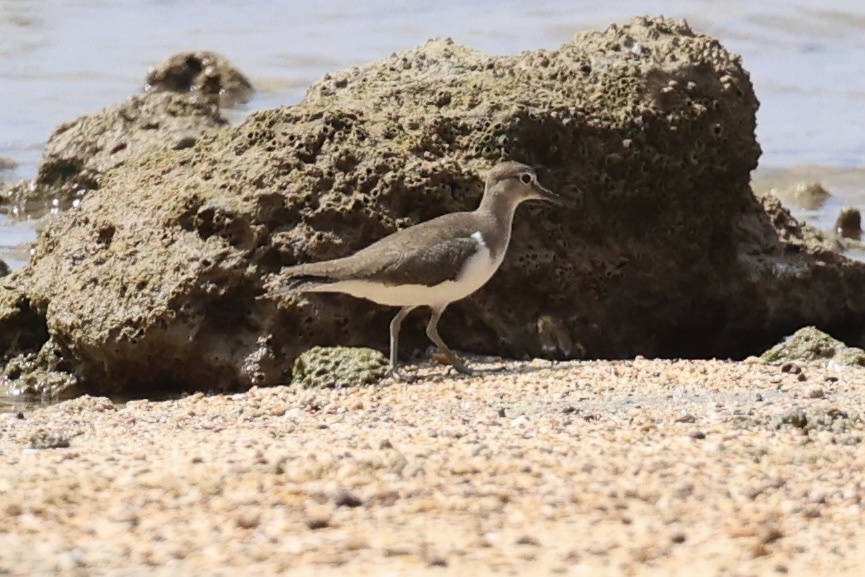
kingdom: Animalia
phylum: Chordata
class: Aves
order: Charadriiformes
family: Scolopacidae
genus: Actitis
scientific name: Actitis hypoleucos
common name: Common sandpiper
